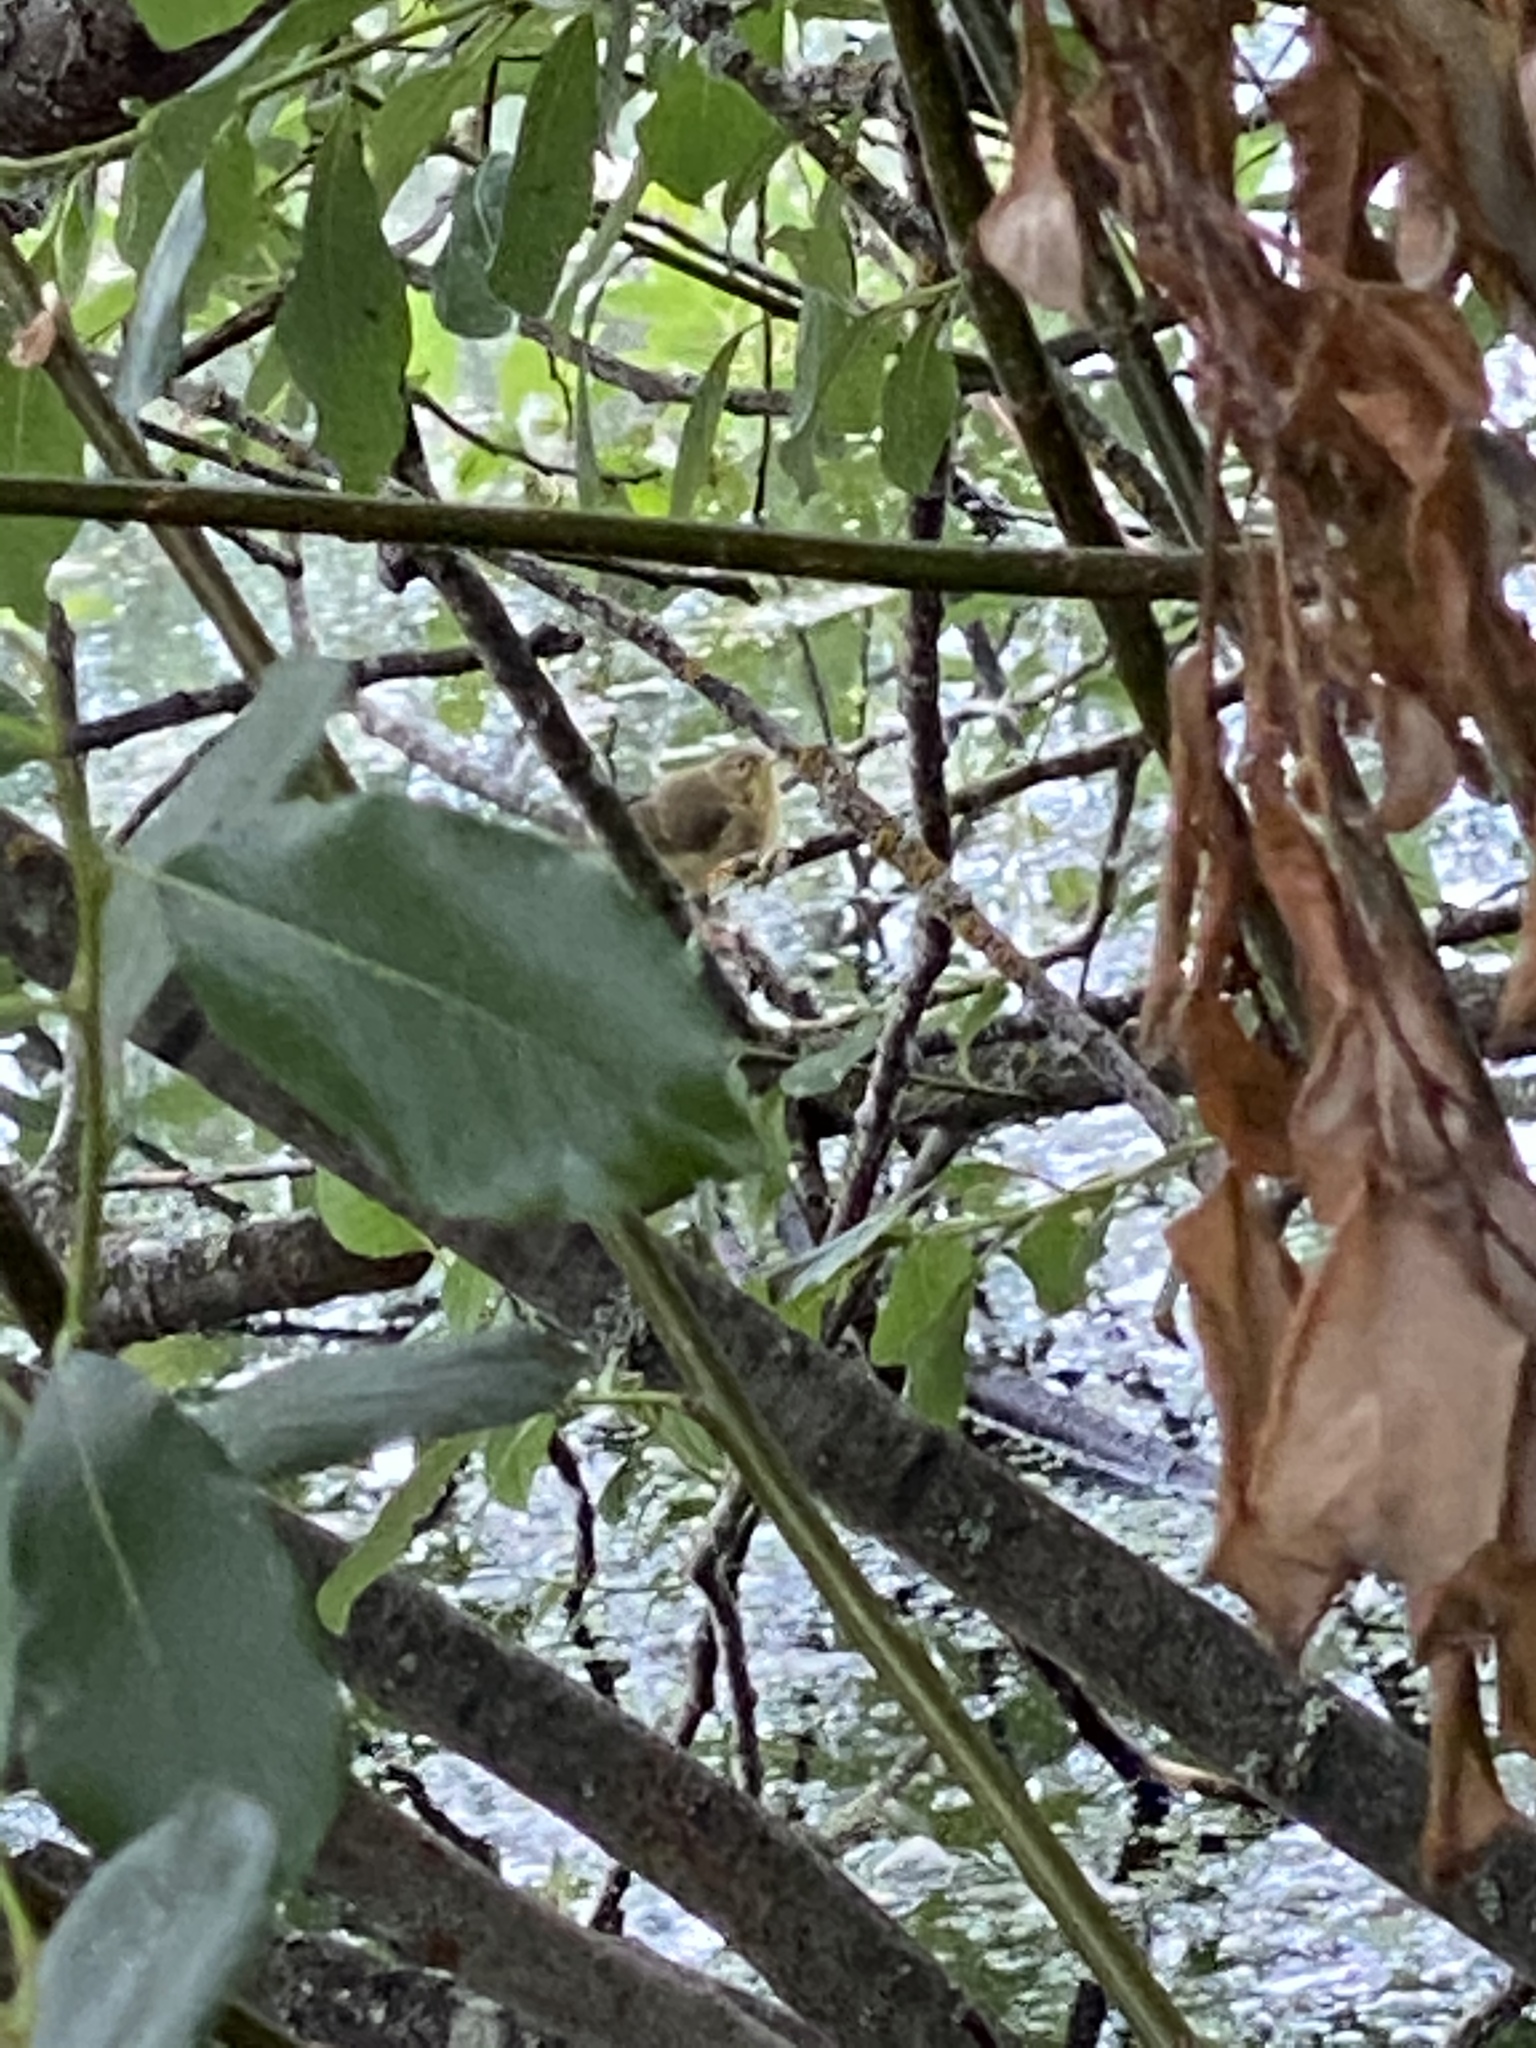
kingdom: Animalia
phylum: Chordata
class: Aves
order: Passeriformes
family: Parulidae
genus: Geothlypis
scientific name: Geothlypis trichas
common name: Common yellowthroat
